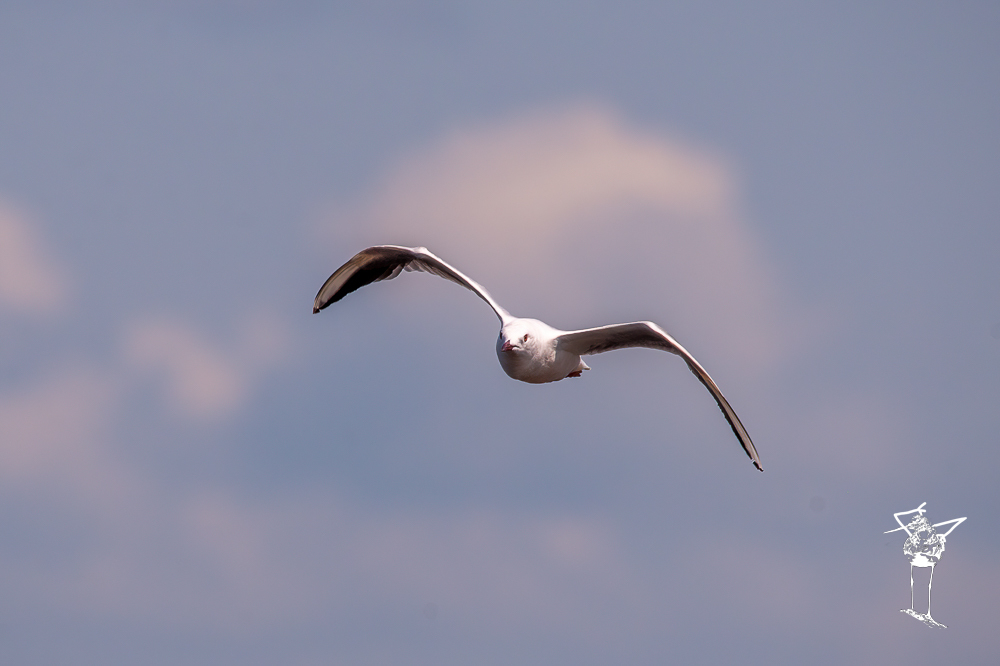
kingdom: Animalia
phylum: Chordata
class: Aves
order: Charadriiformes
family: Laridae
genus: Chroicocephalus
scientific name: Chroicocephalus genei
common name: Slender-billed gull
